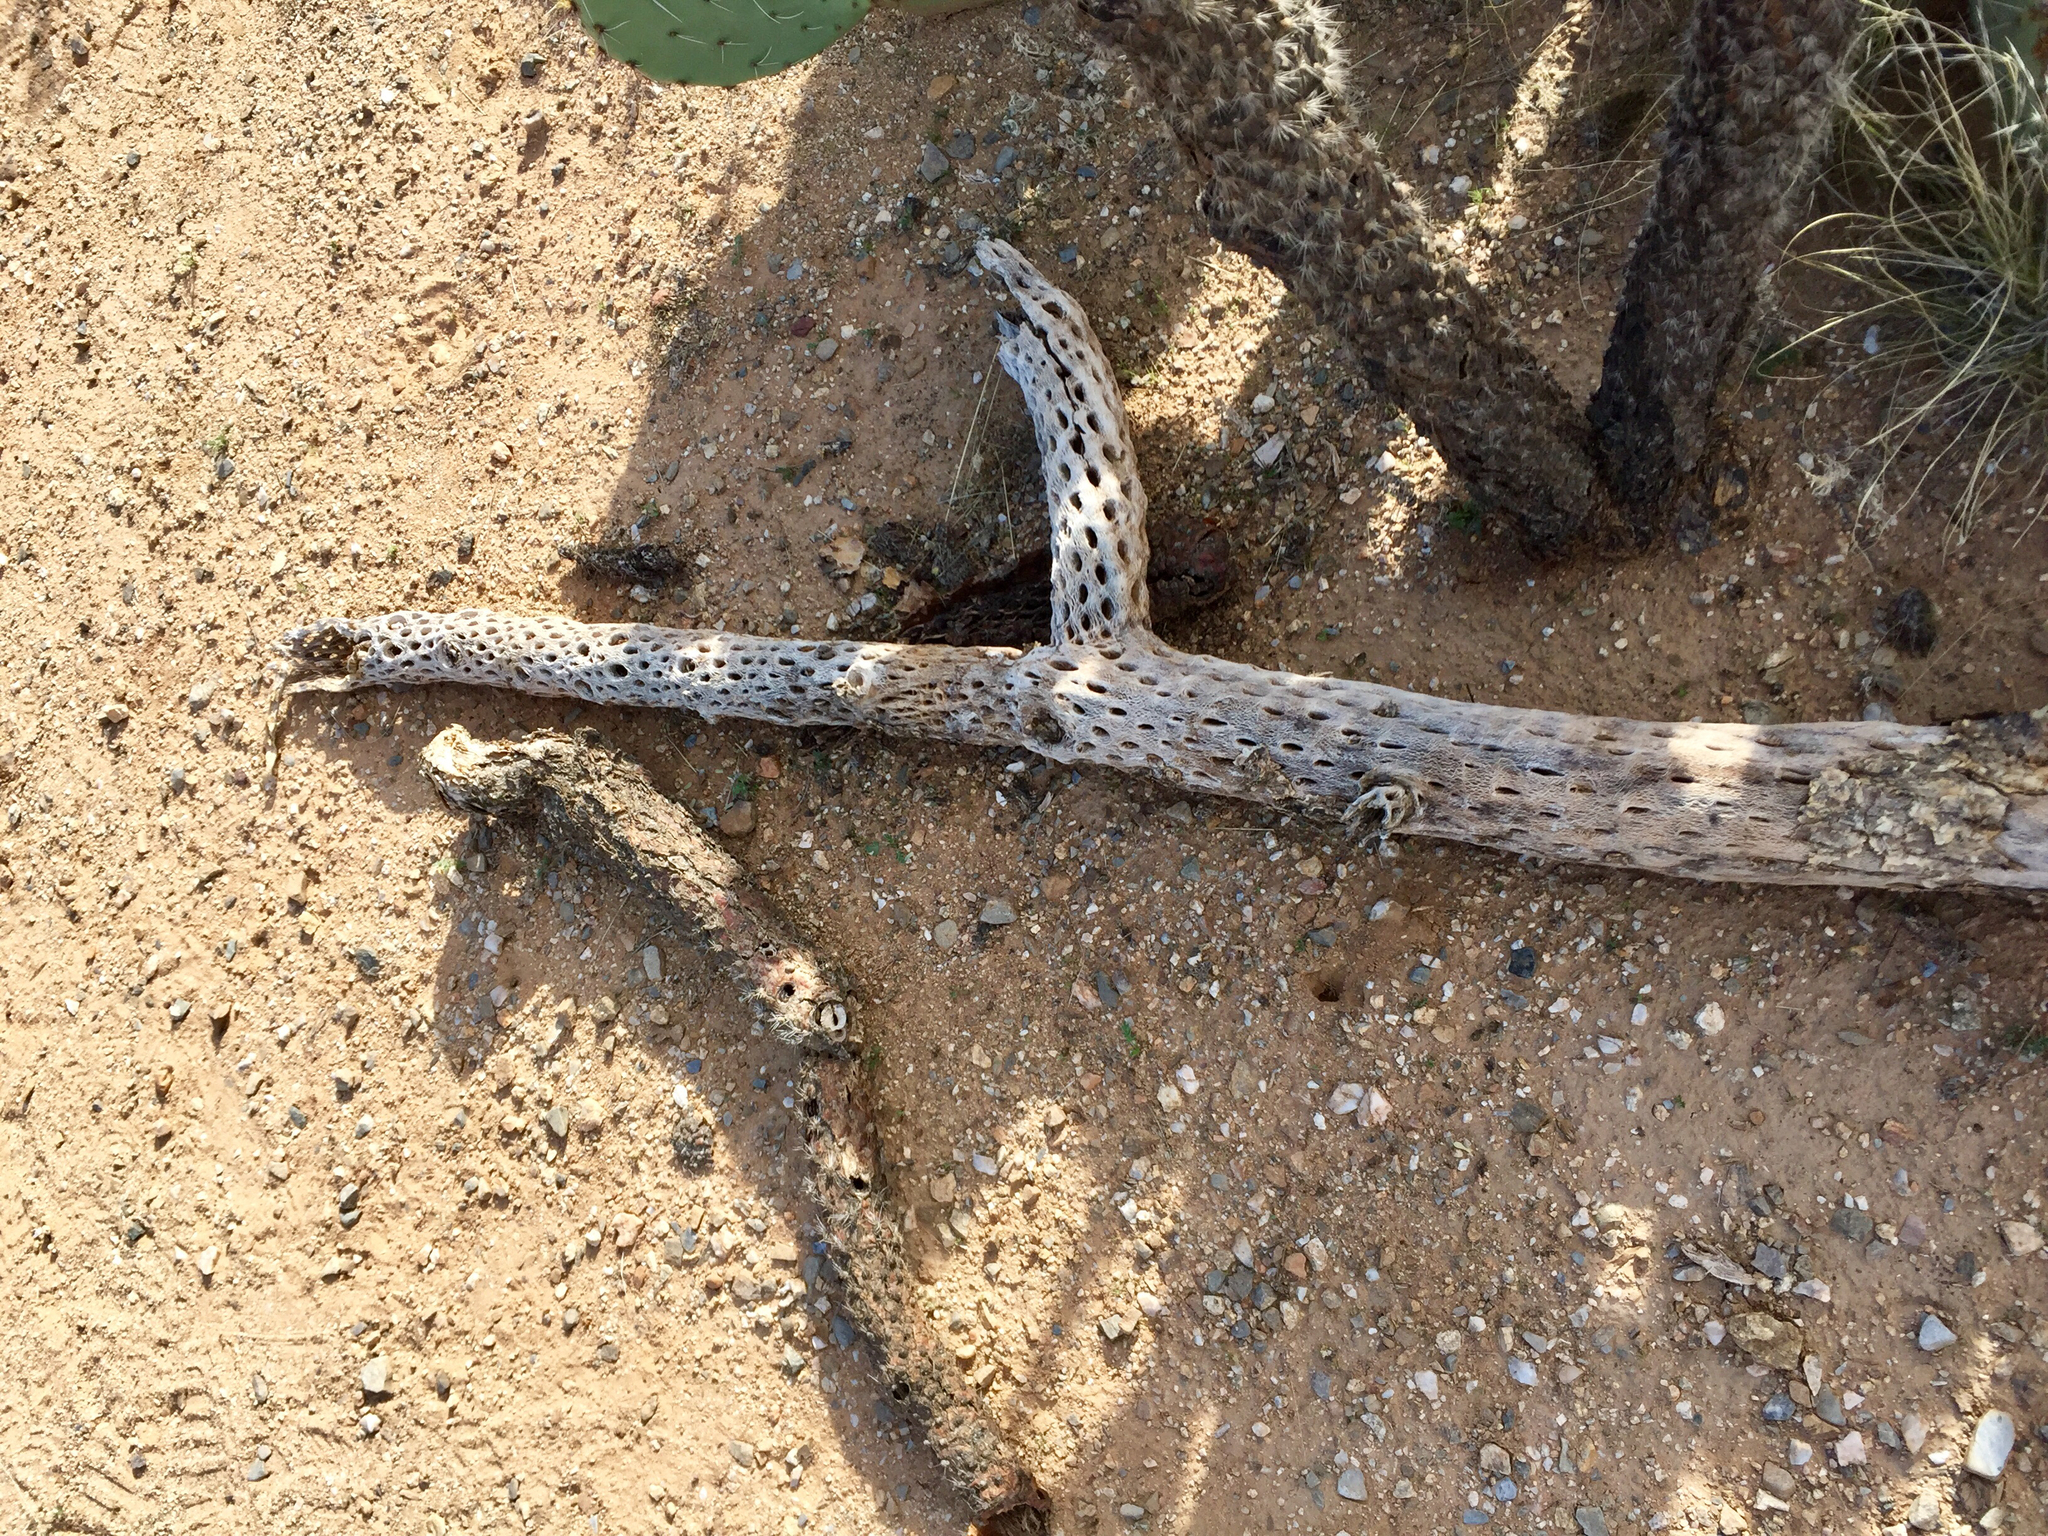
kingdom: Plantae
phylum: Tracheophyta
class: Magnoliopsida
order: Caryophyllales
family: Cactaceae
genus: Cylindropuntia
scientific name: Cylindropuntia fulgida
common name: Jumping cholla
